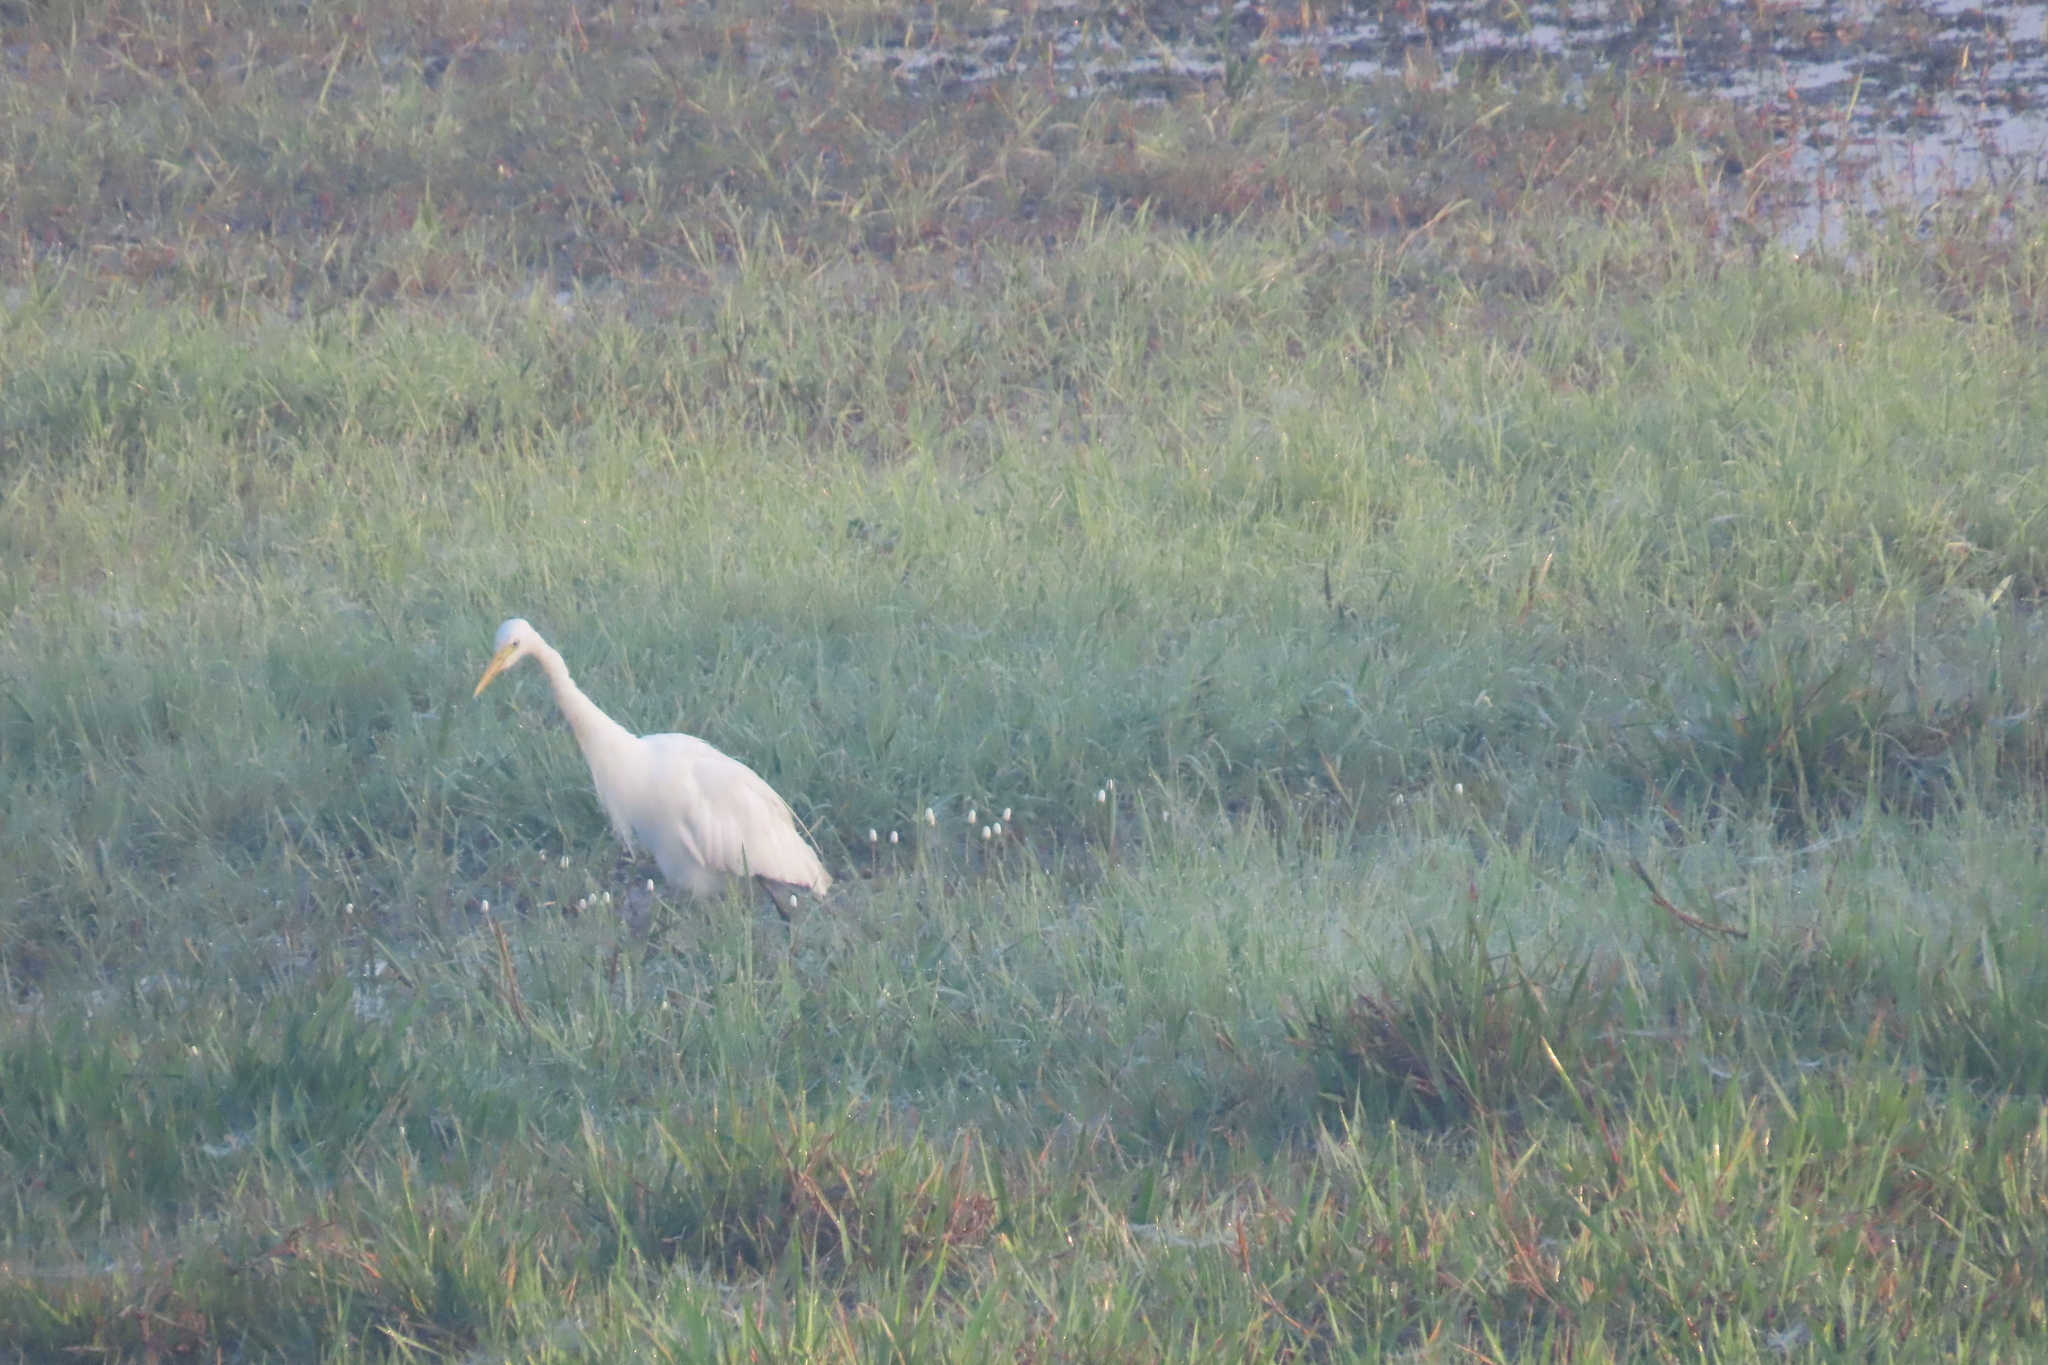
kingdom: Animalia
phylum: Chordata
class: Aves
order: Pelecaniformes
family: Ardeidae
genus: Bubulcus
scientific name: Bubulcus coromandus
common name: Eastern cattle egret
